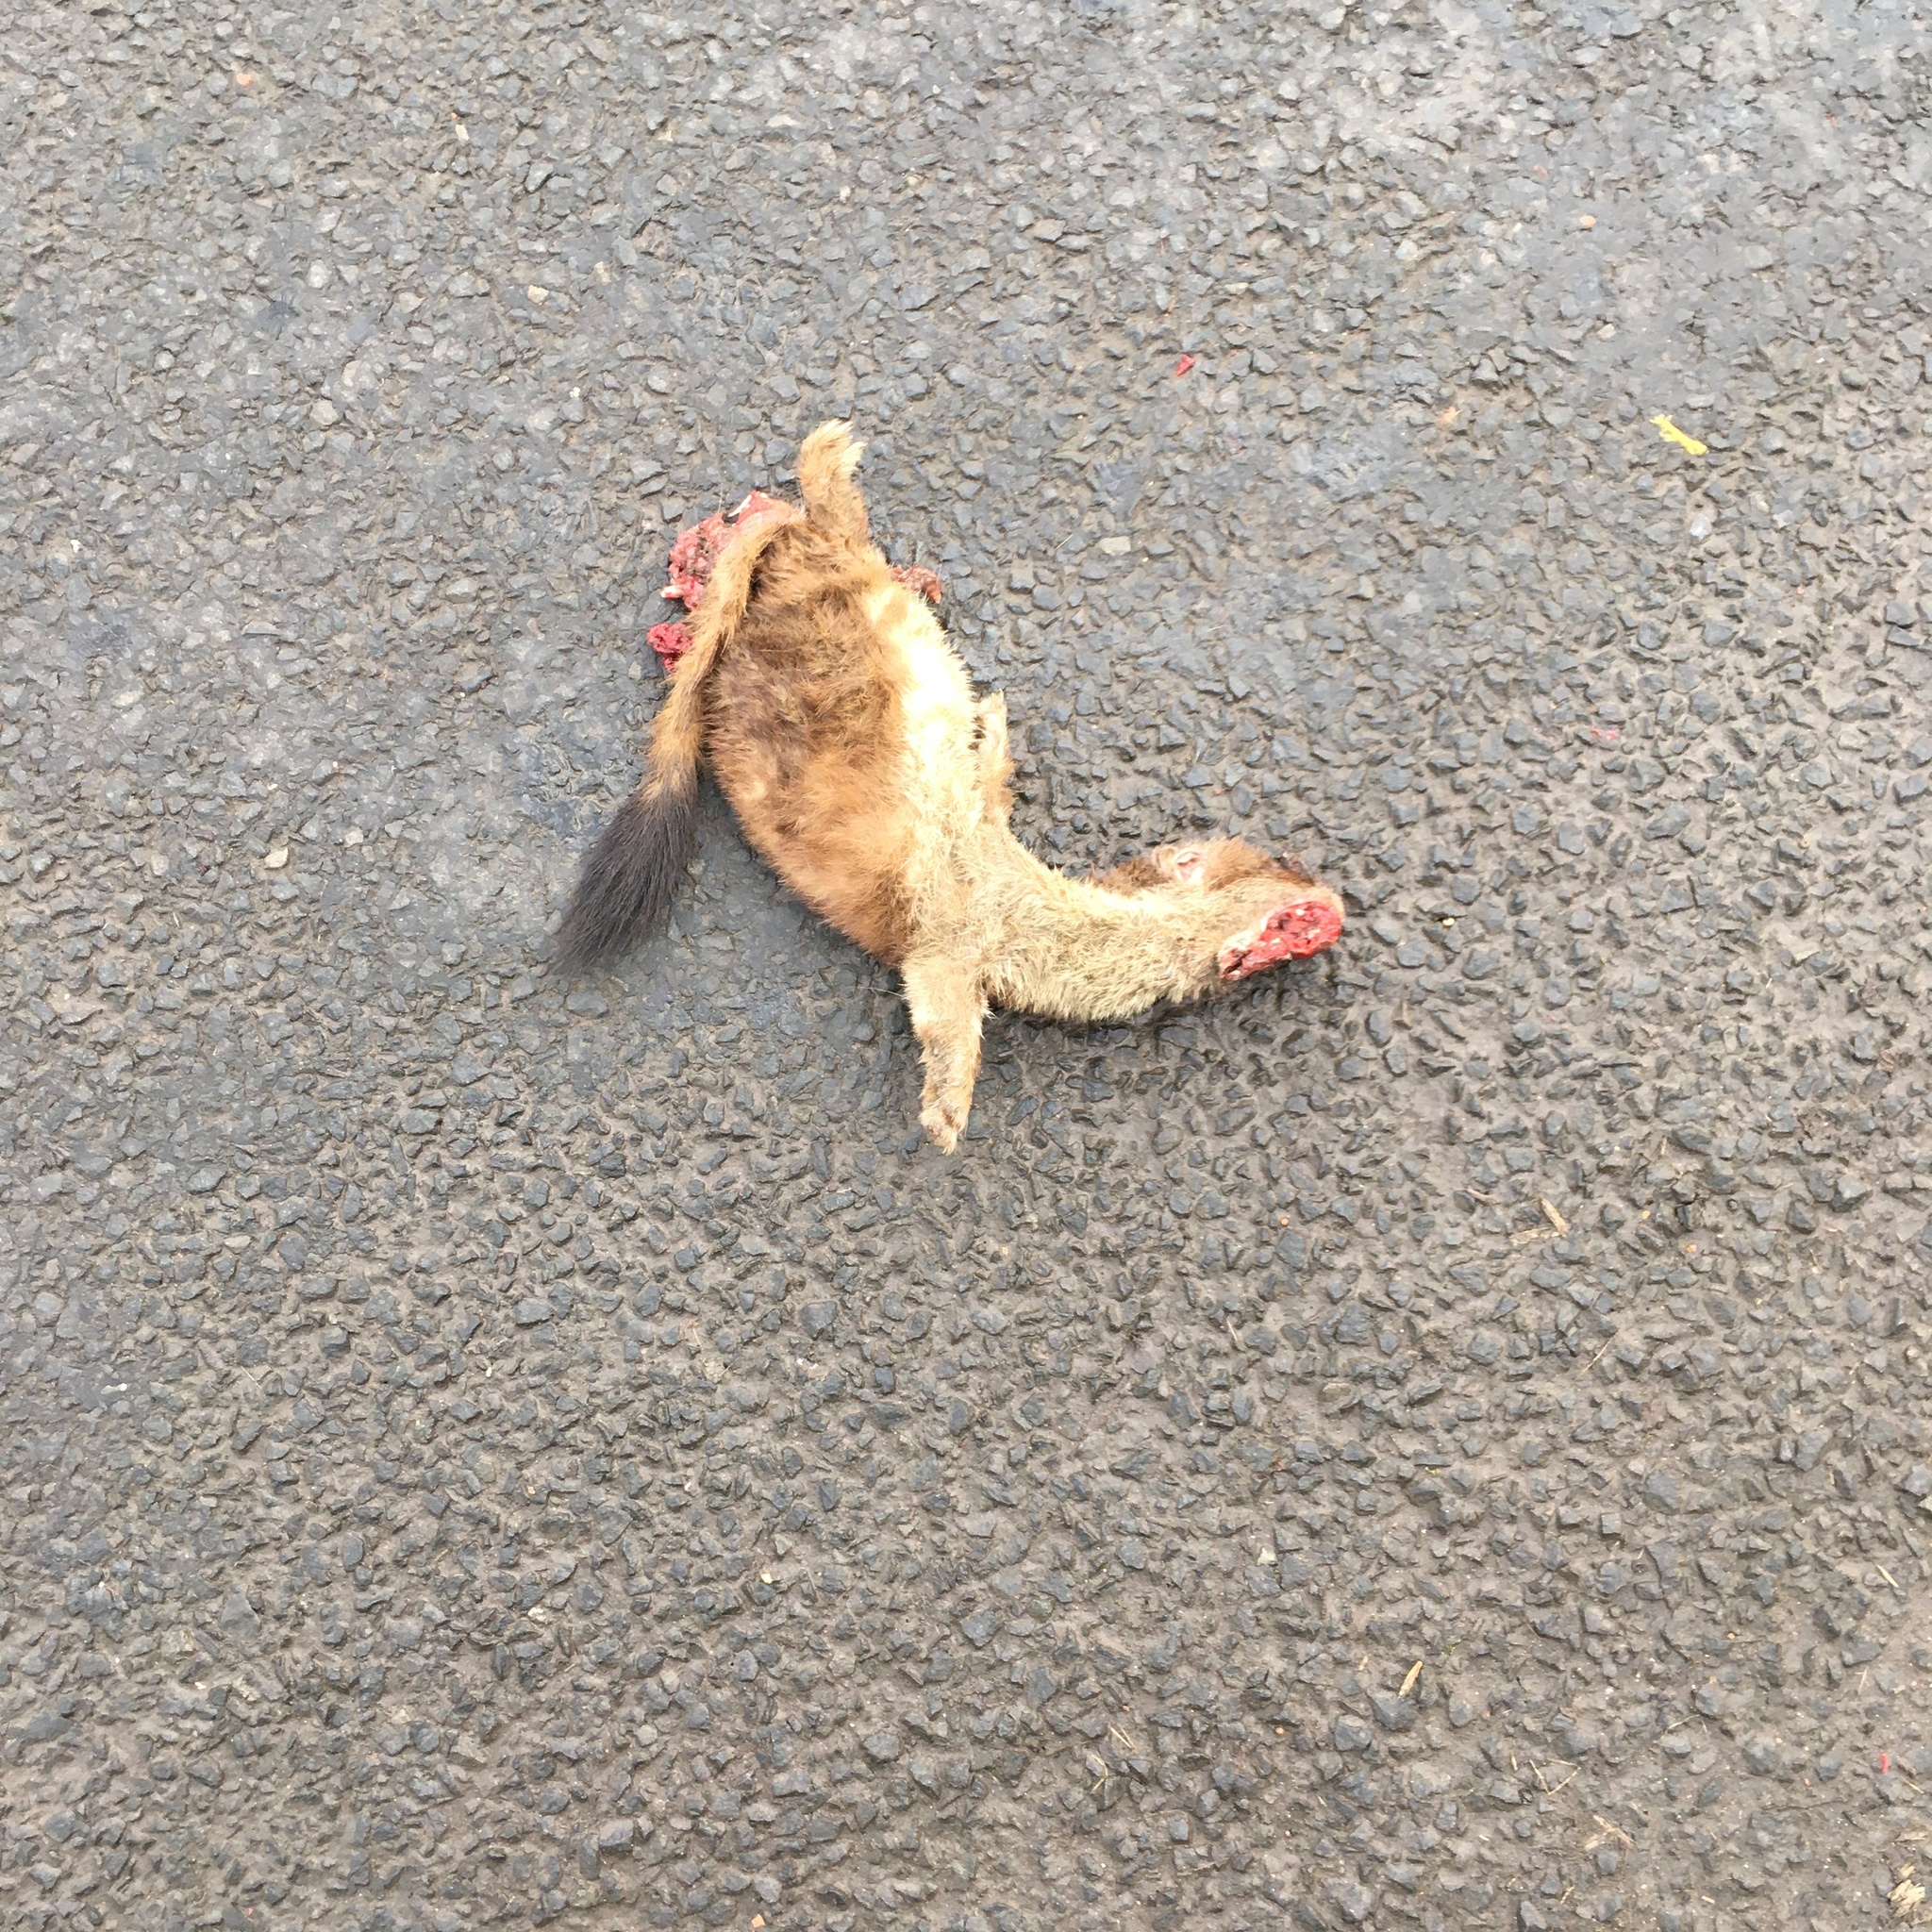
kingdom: Animalia
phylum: Chordata
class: Mammalia
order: Carnivora
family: Mustelidae
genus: Mustela
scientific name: Mustela erminea
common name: Stoat
